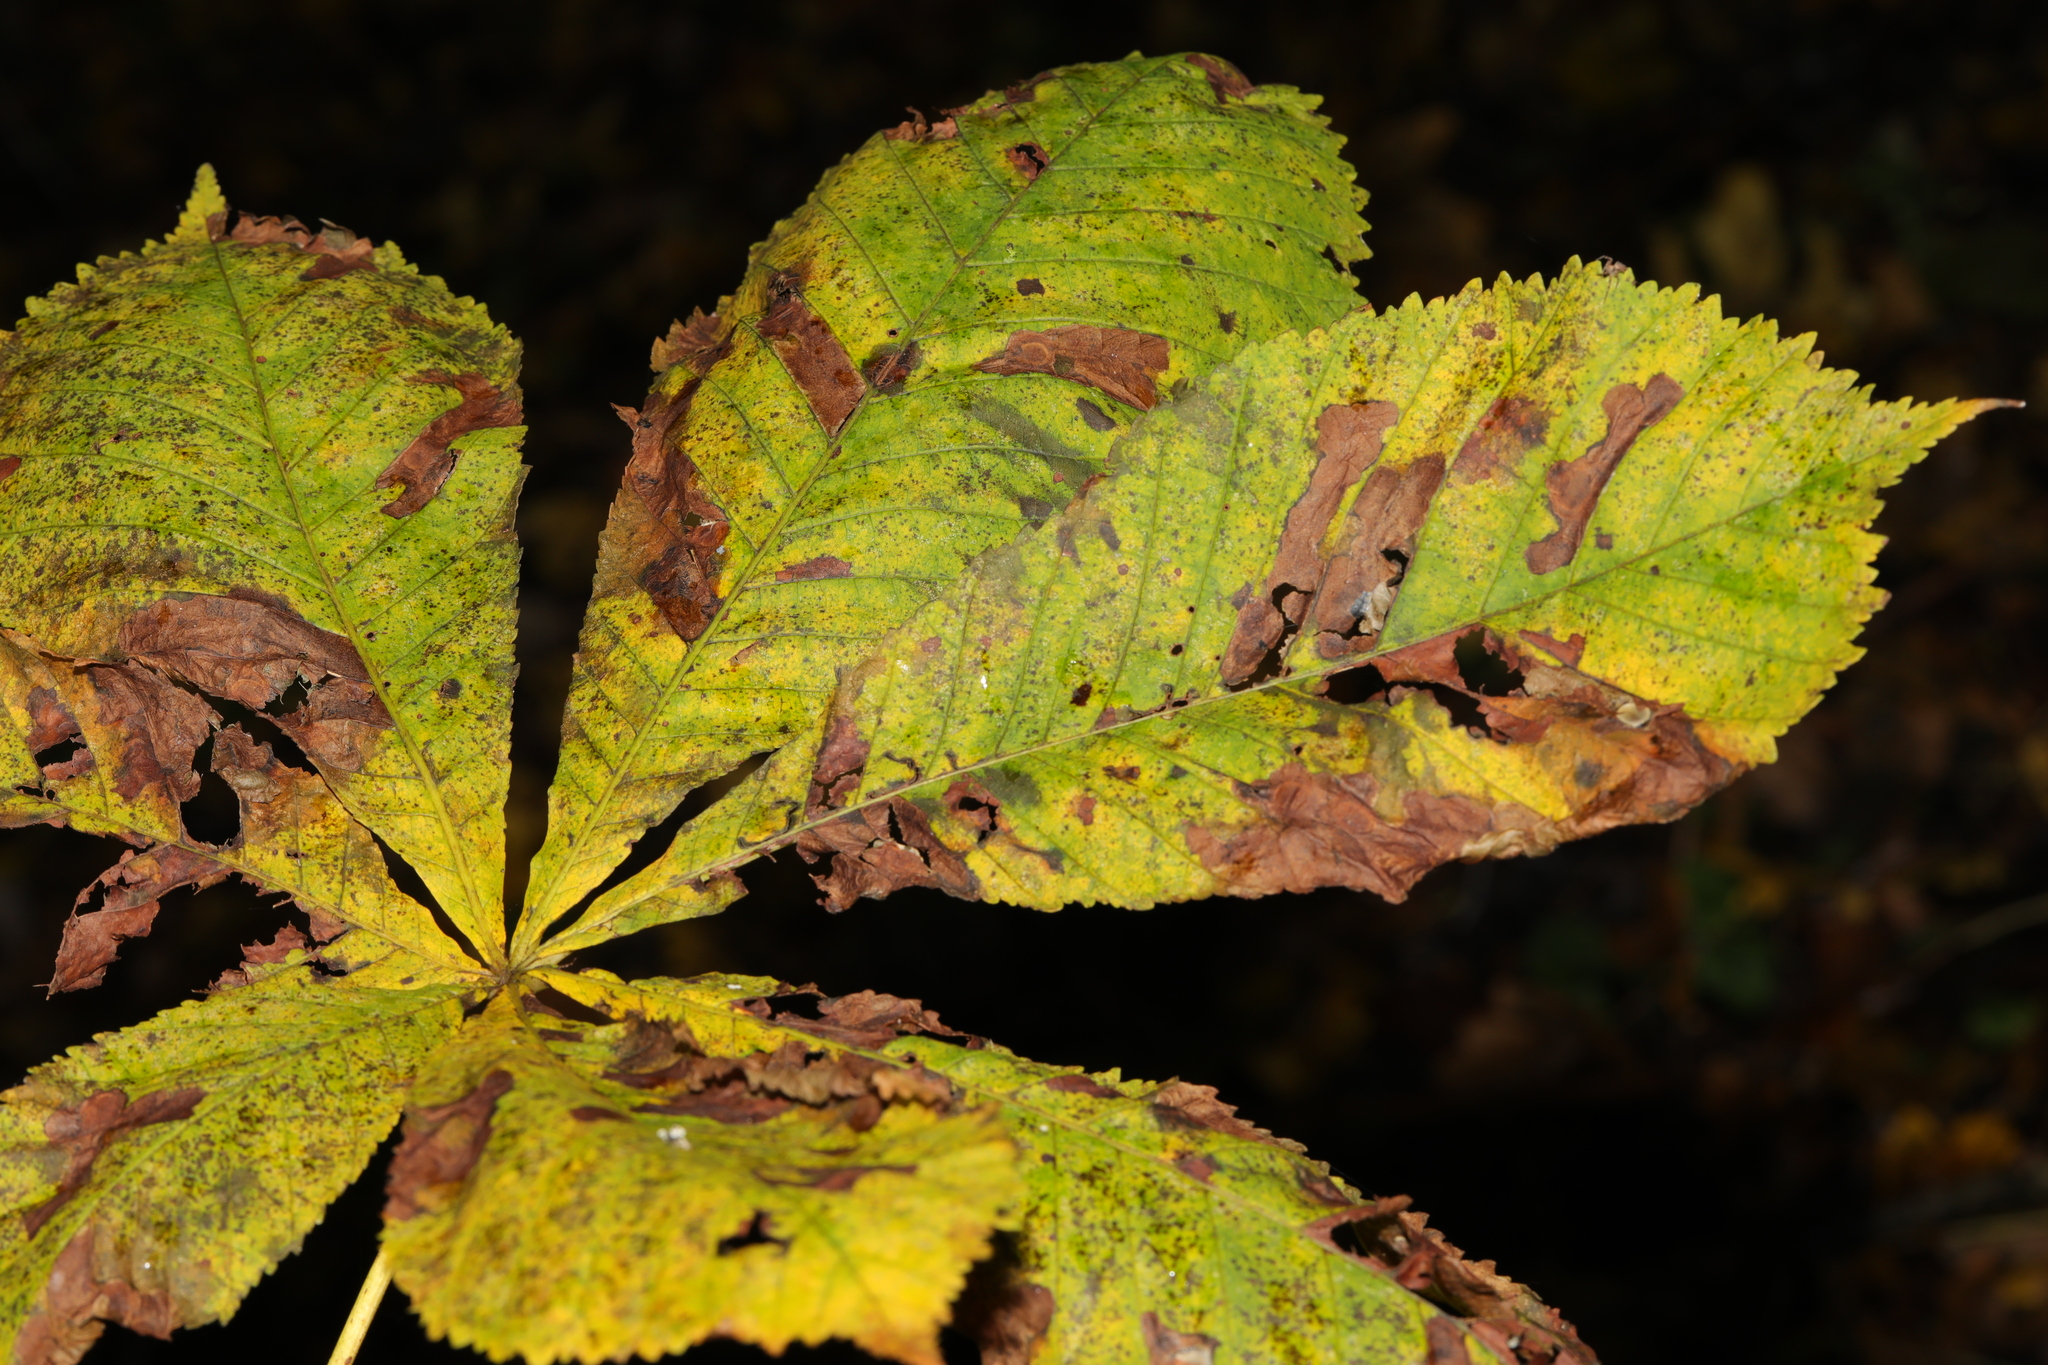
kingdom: Plantae
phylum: Tracheophyta
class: Magnoliopsida
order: Sapindales
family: Sapindaceae
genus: Aesculus
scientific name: Aesculus hippocastanum
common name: Horse-chestnut
